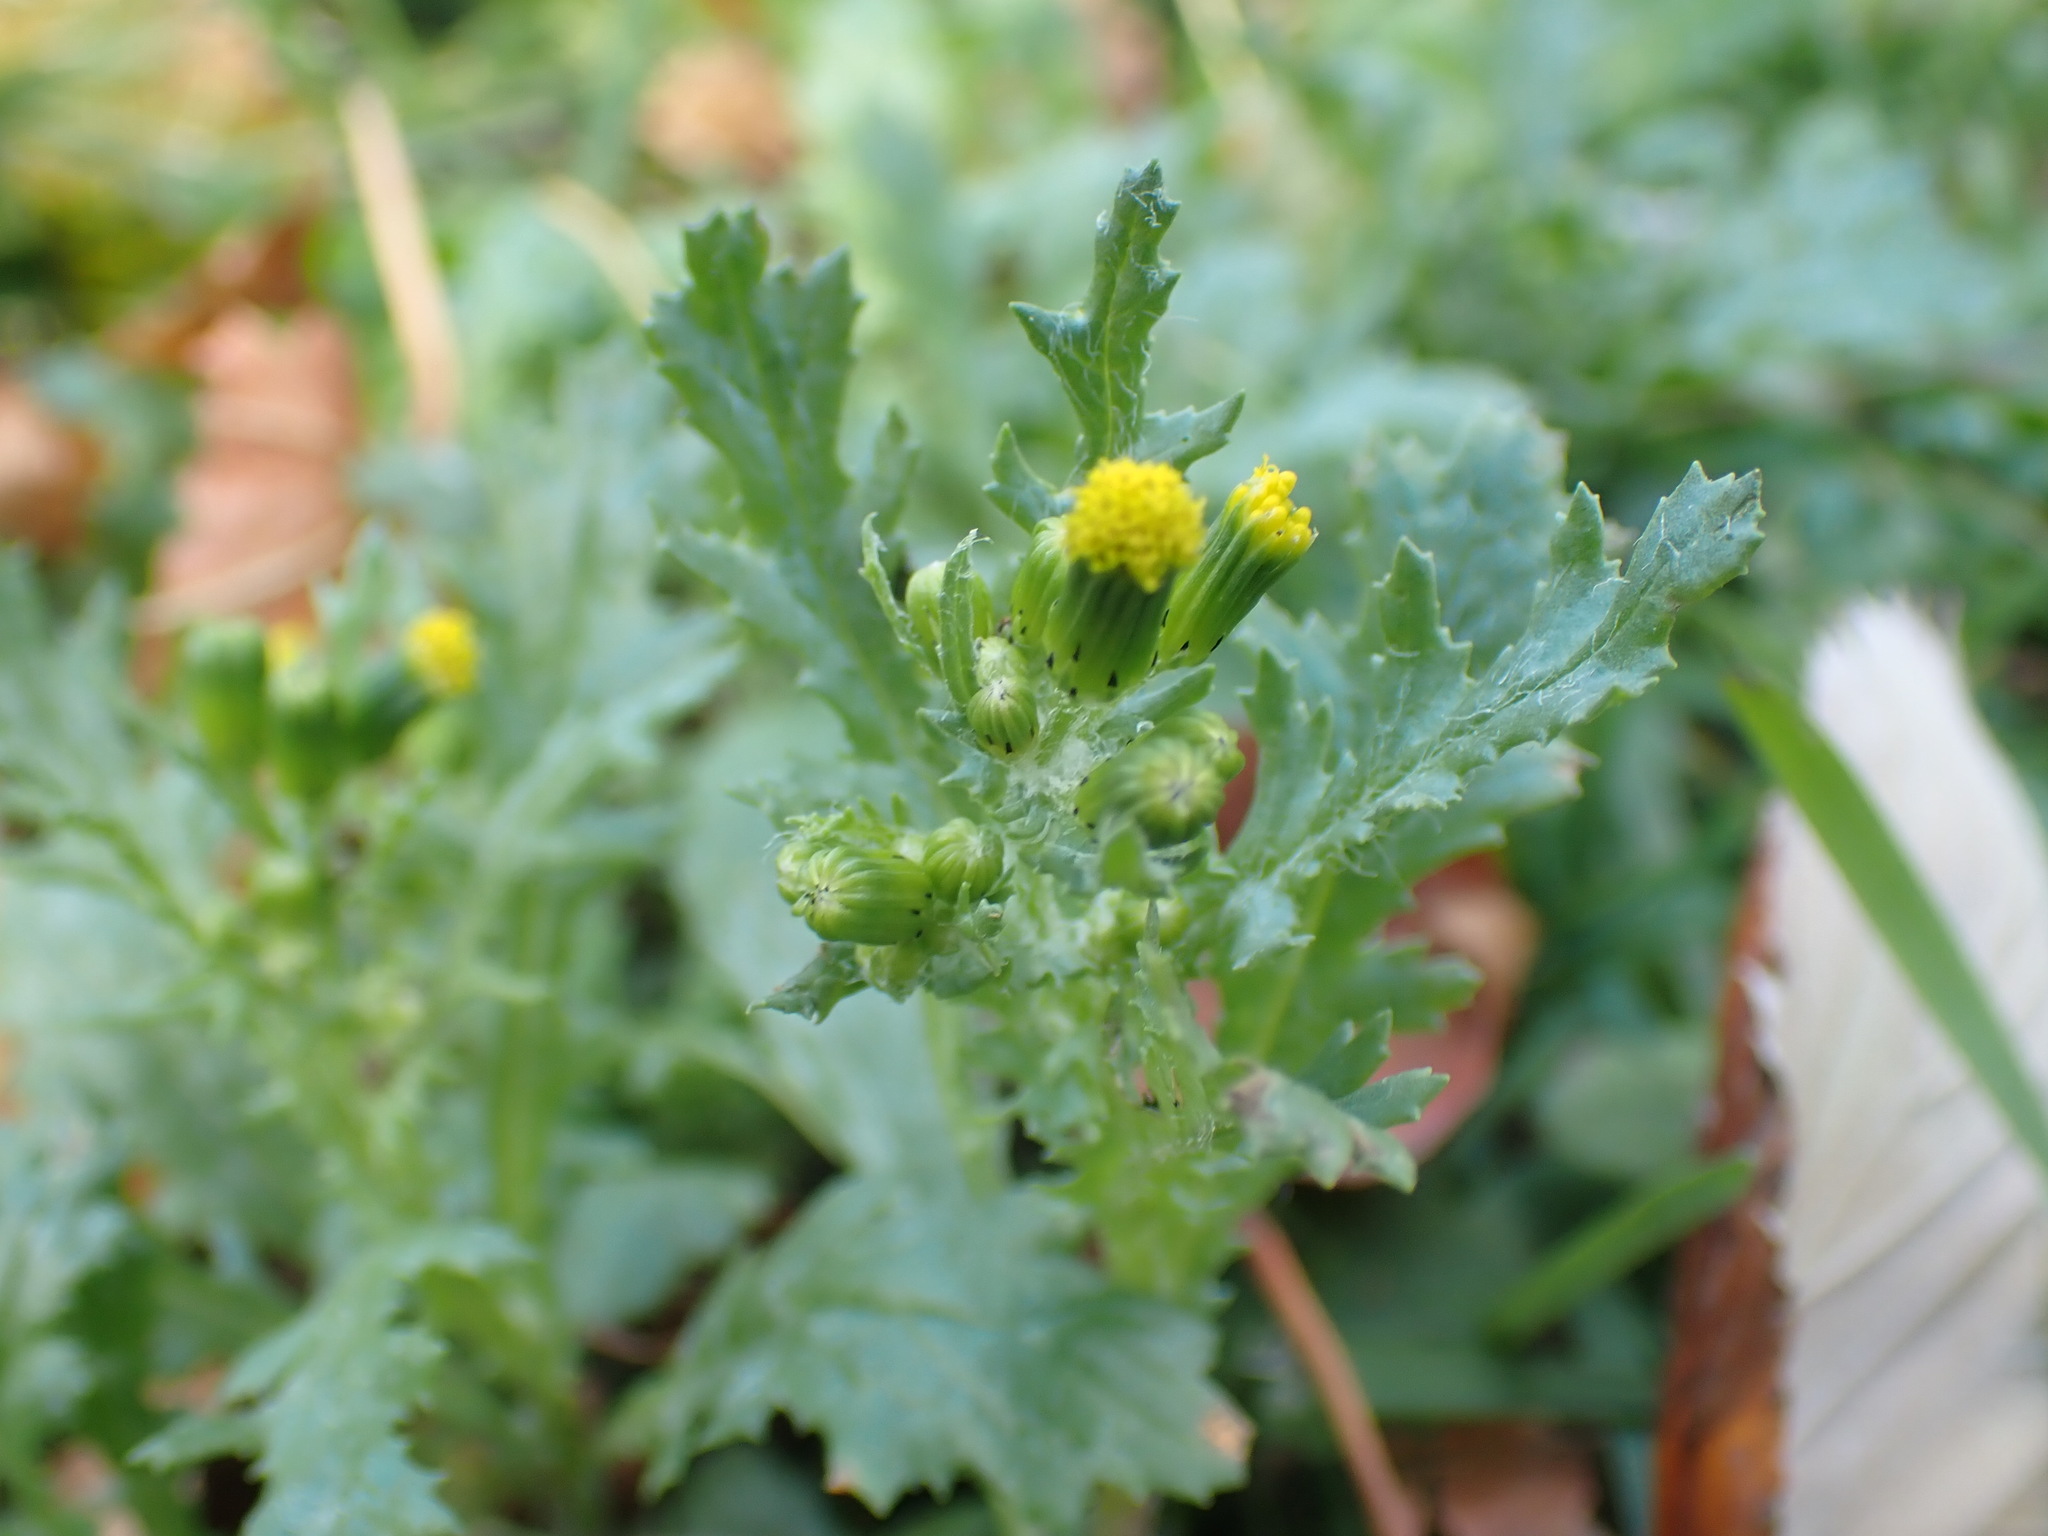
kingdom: Plantae
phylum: Tracheophyta
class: Magnoliopsida
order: Asterales
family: Asteraceae
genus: Senecio
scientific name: Senecio vulgaris
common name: Old-man-in-the-spring
